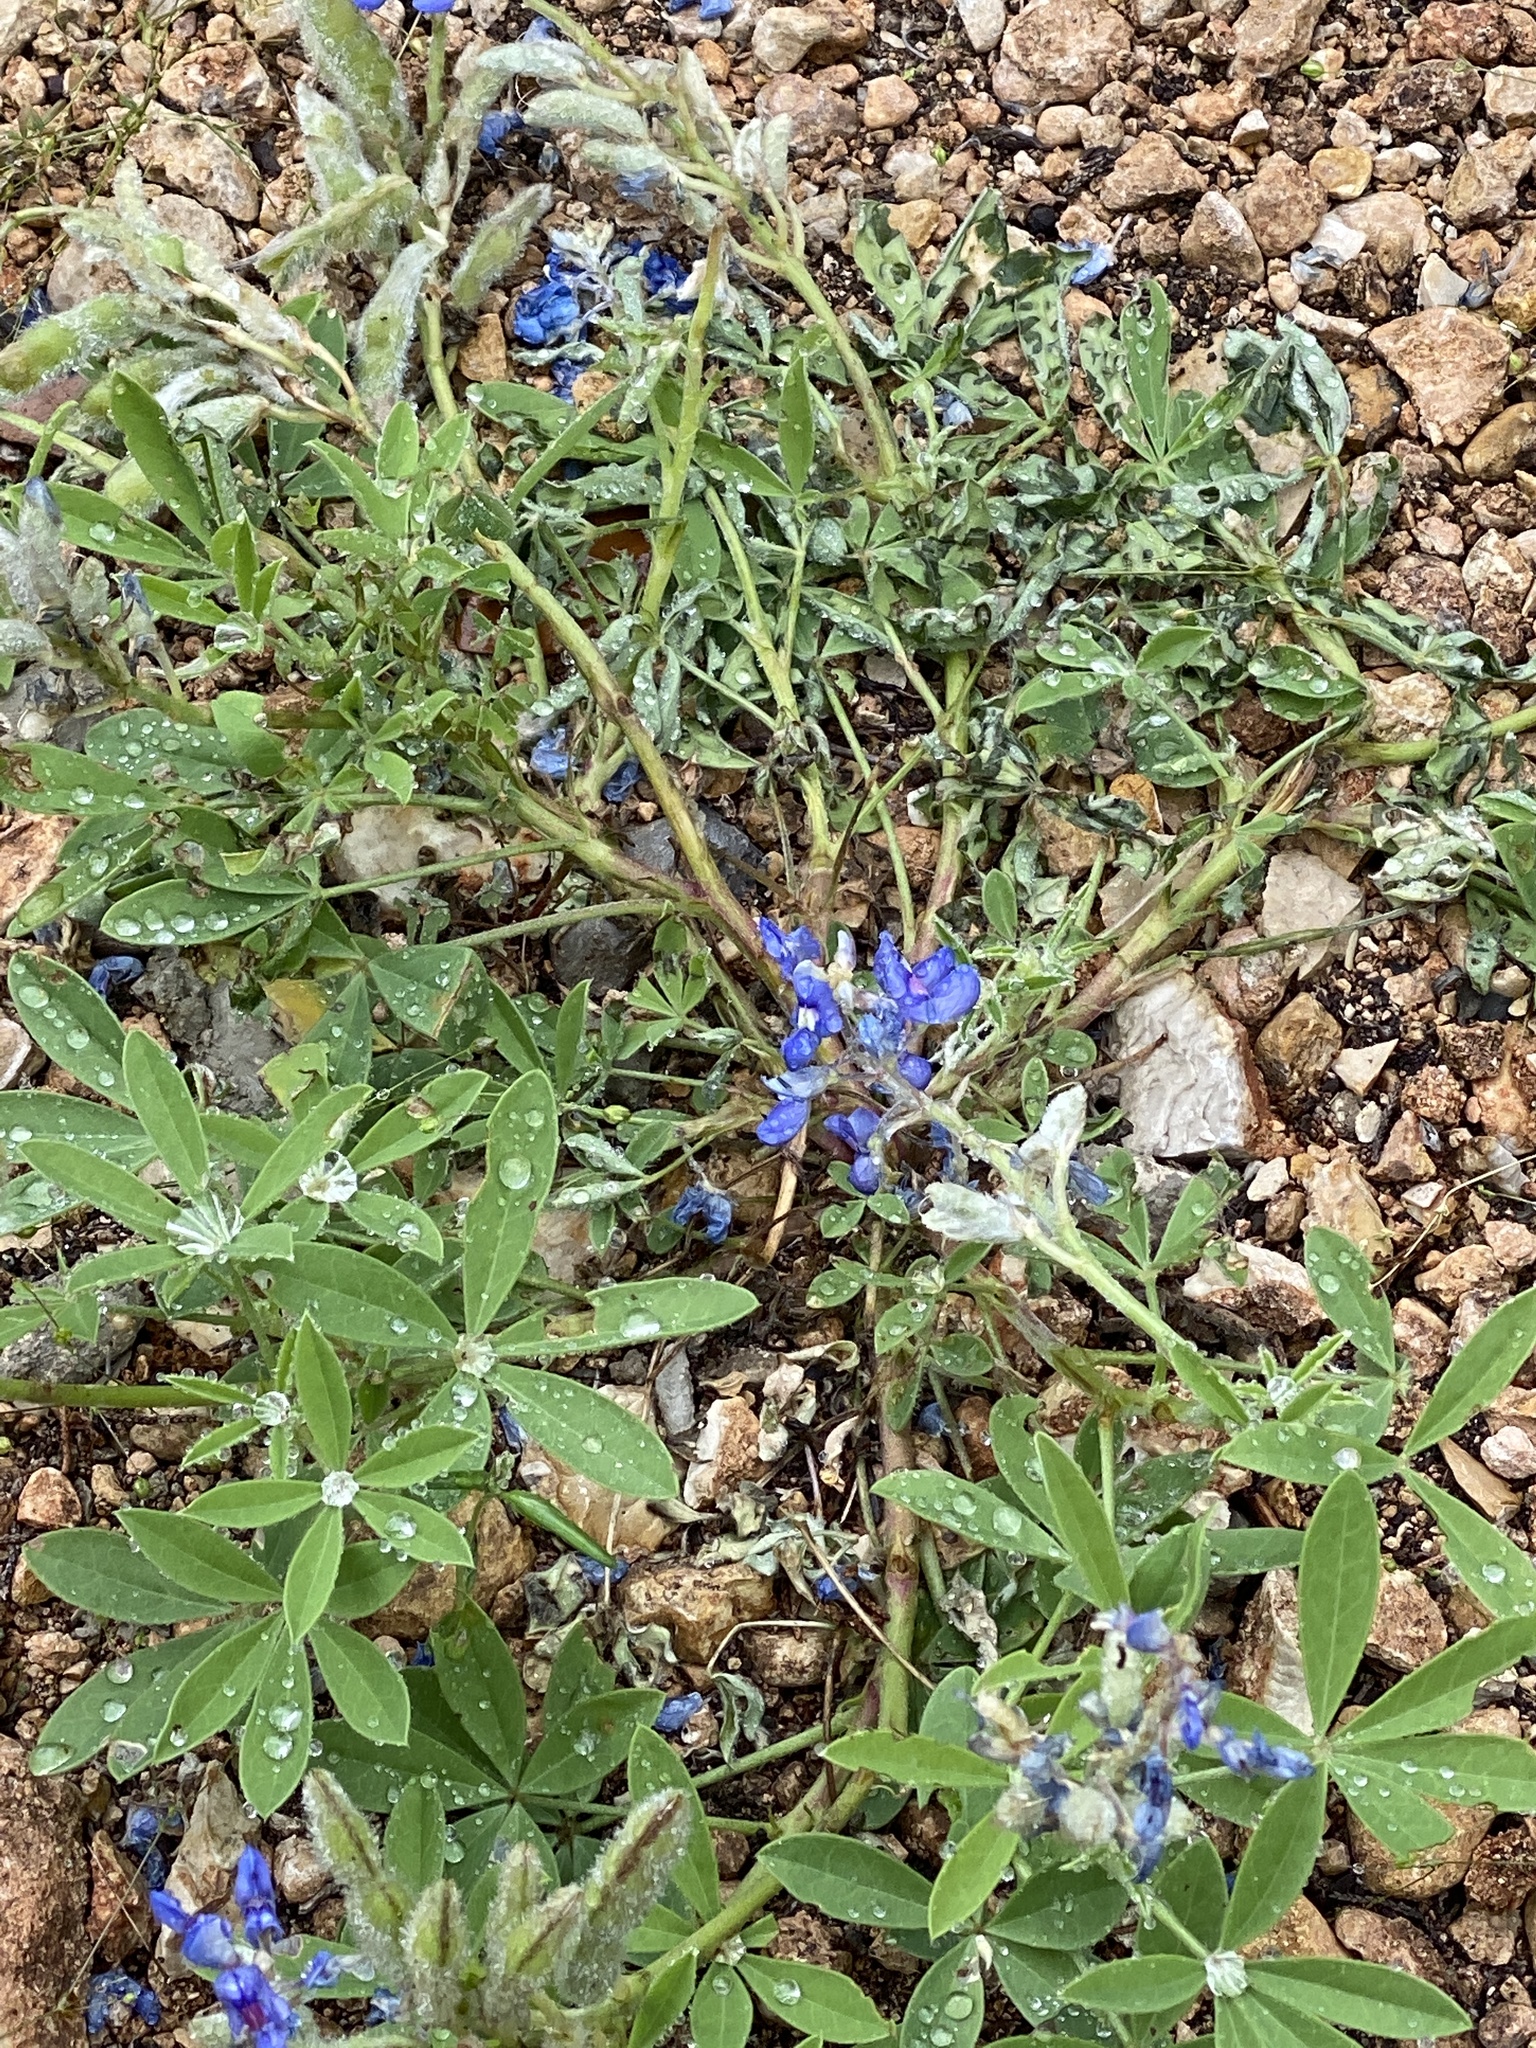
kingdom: Plantae
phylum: Tracheophyta
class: Magnoliopsida
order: Fabales
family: Fabaceae
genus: Lupinus
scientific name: Lupinus texensis
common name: Texas bluebonnet
